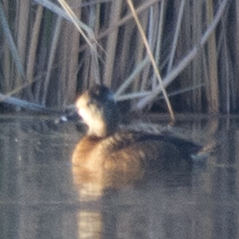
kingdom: Animalia
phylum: Chordata
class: Aves
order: Anseriformes
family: Anatidae
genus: Aythya
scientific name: Aythya collaris
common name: Ring-necked duck
